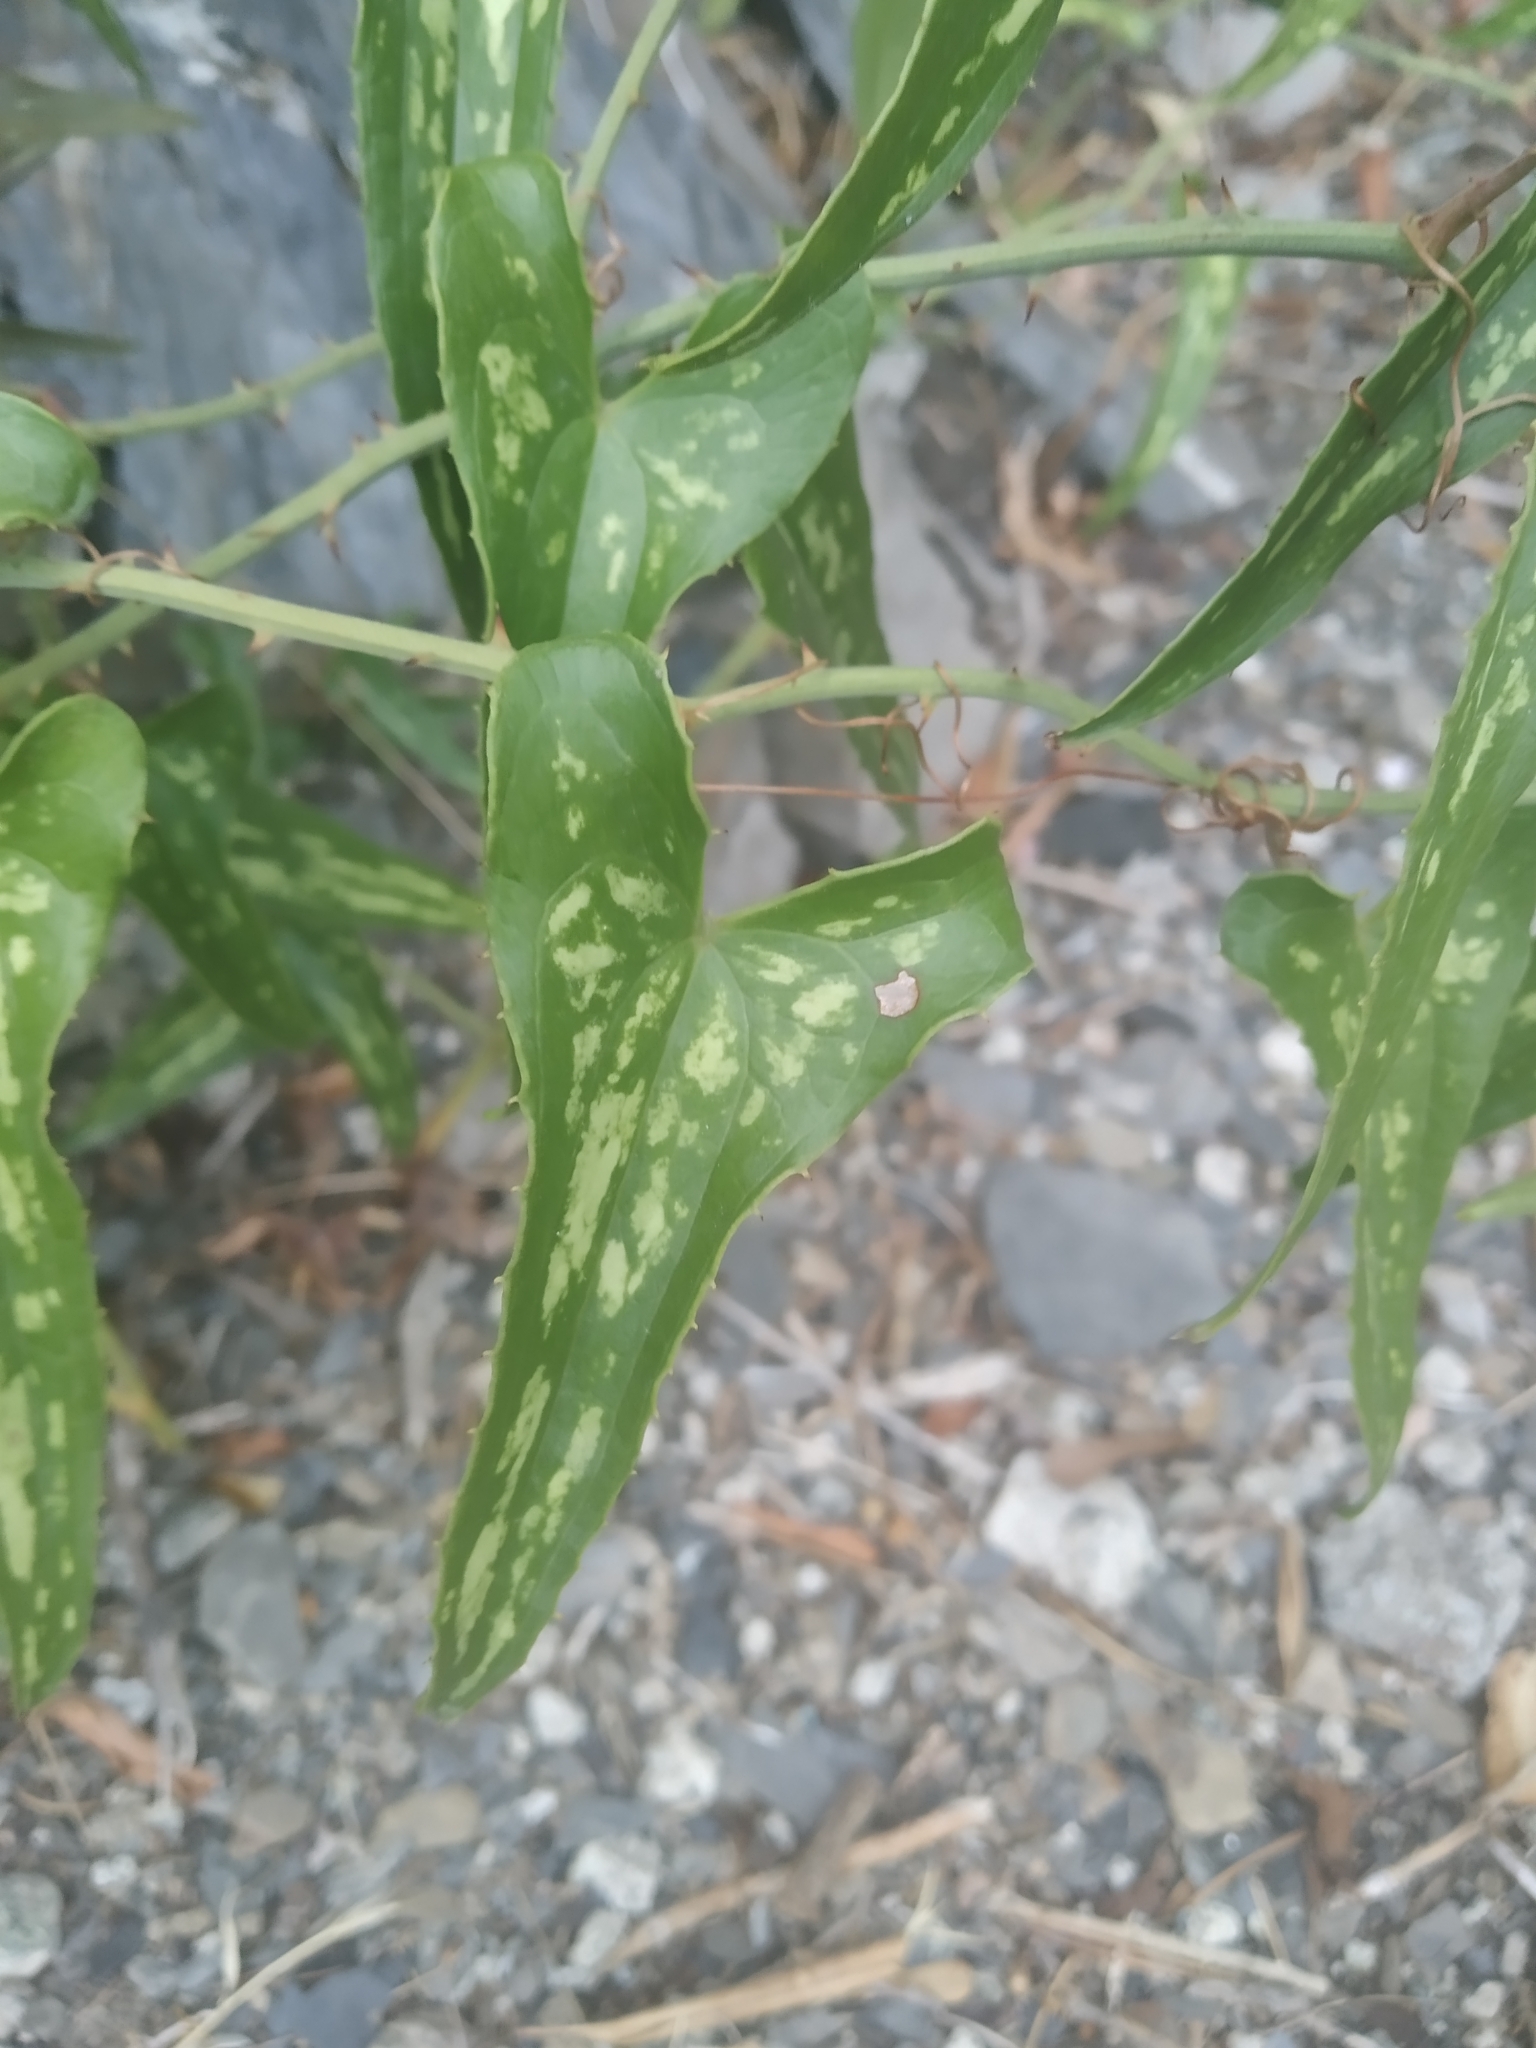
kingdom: Plantae
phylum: Tracheophyta
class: Liliopsida
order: Liliales
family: Smilacaceae
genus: Smilax
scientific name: Smilax aspera
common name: Common smilax
